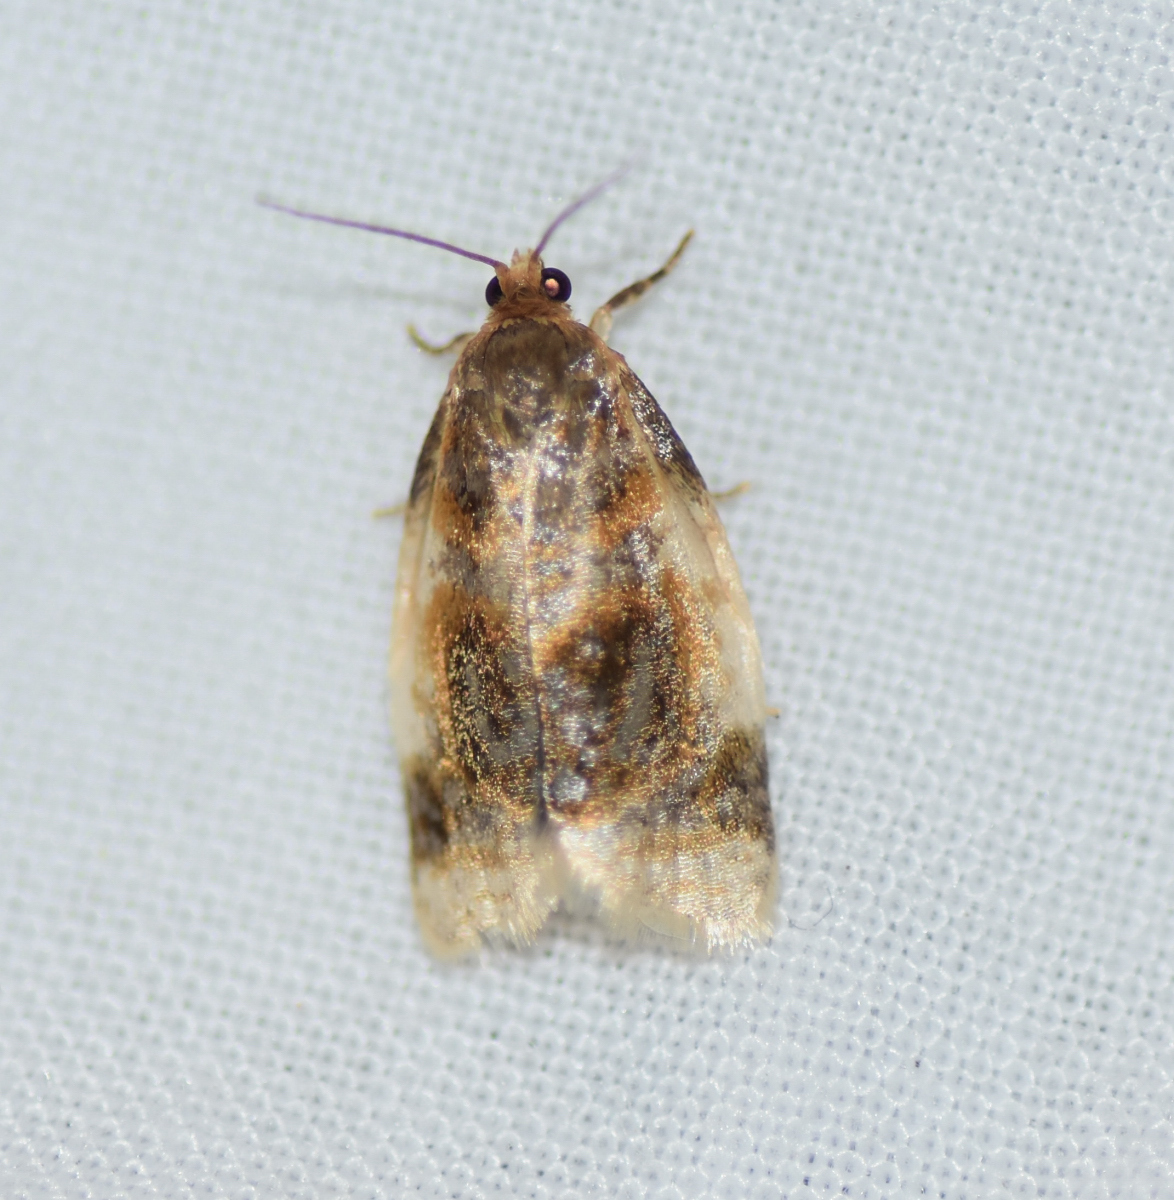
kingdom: Animalia
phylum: Arthropoda
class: Insecta
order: Lepidoptera
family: Tortricidae
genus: Clepsis
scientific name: Clepsis melaleucanus
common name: American apple tortrix
